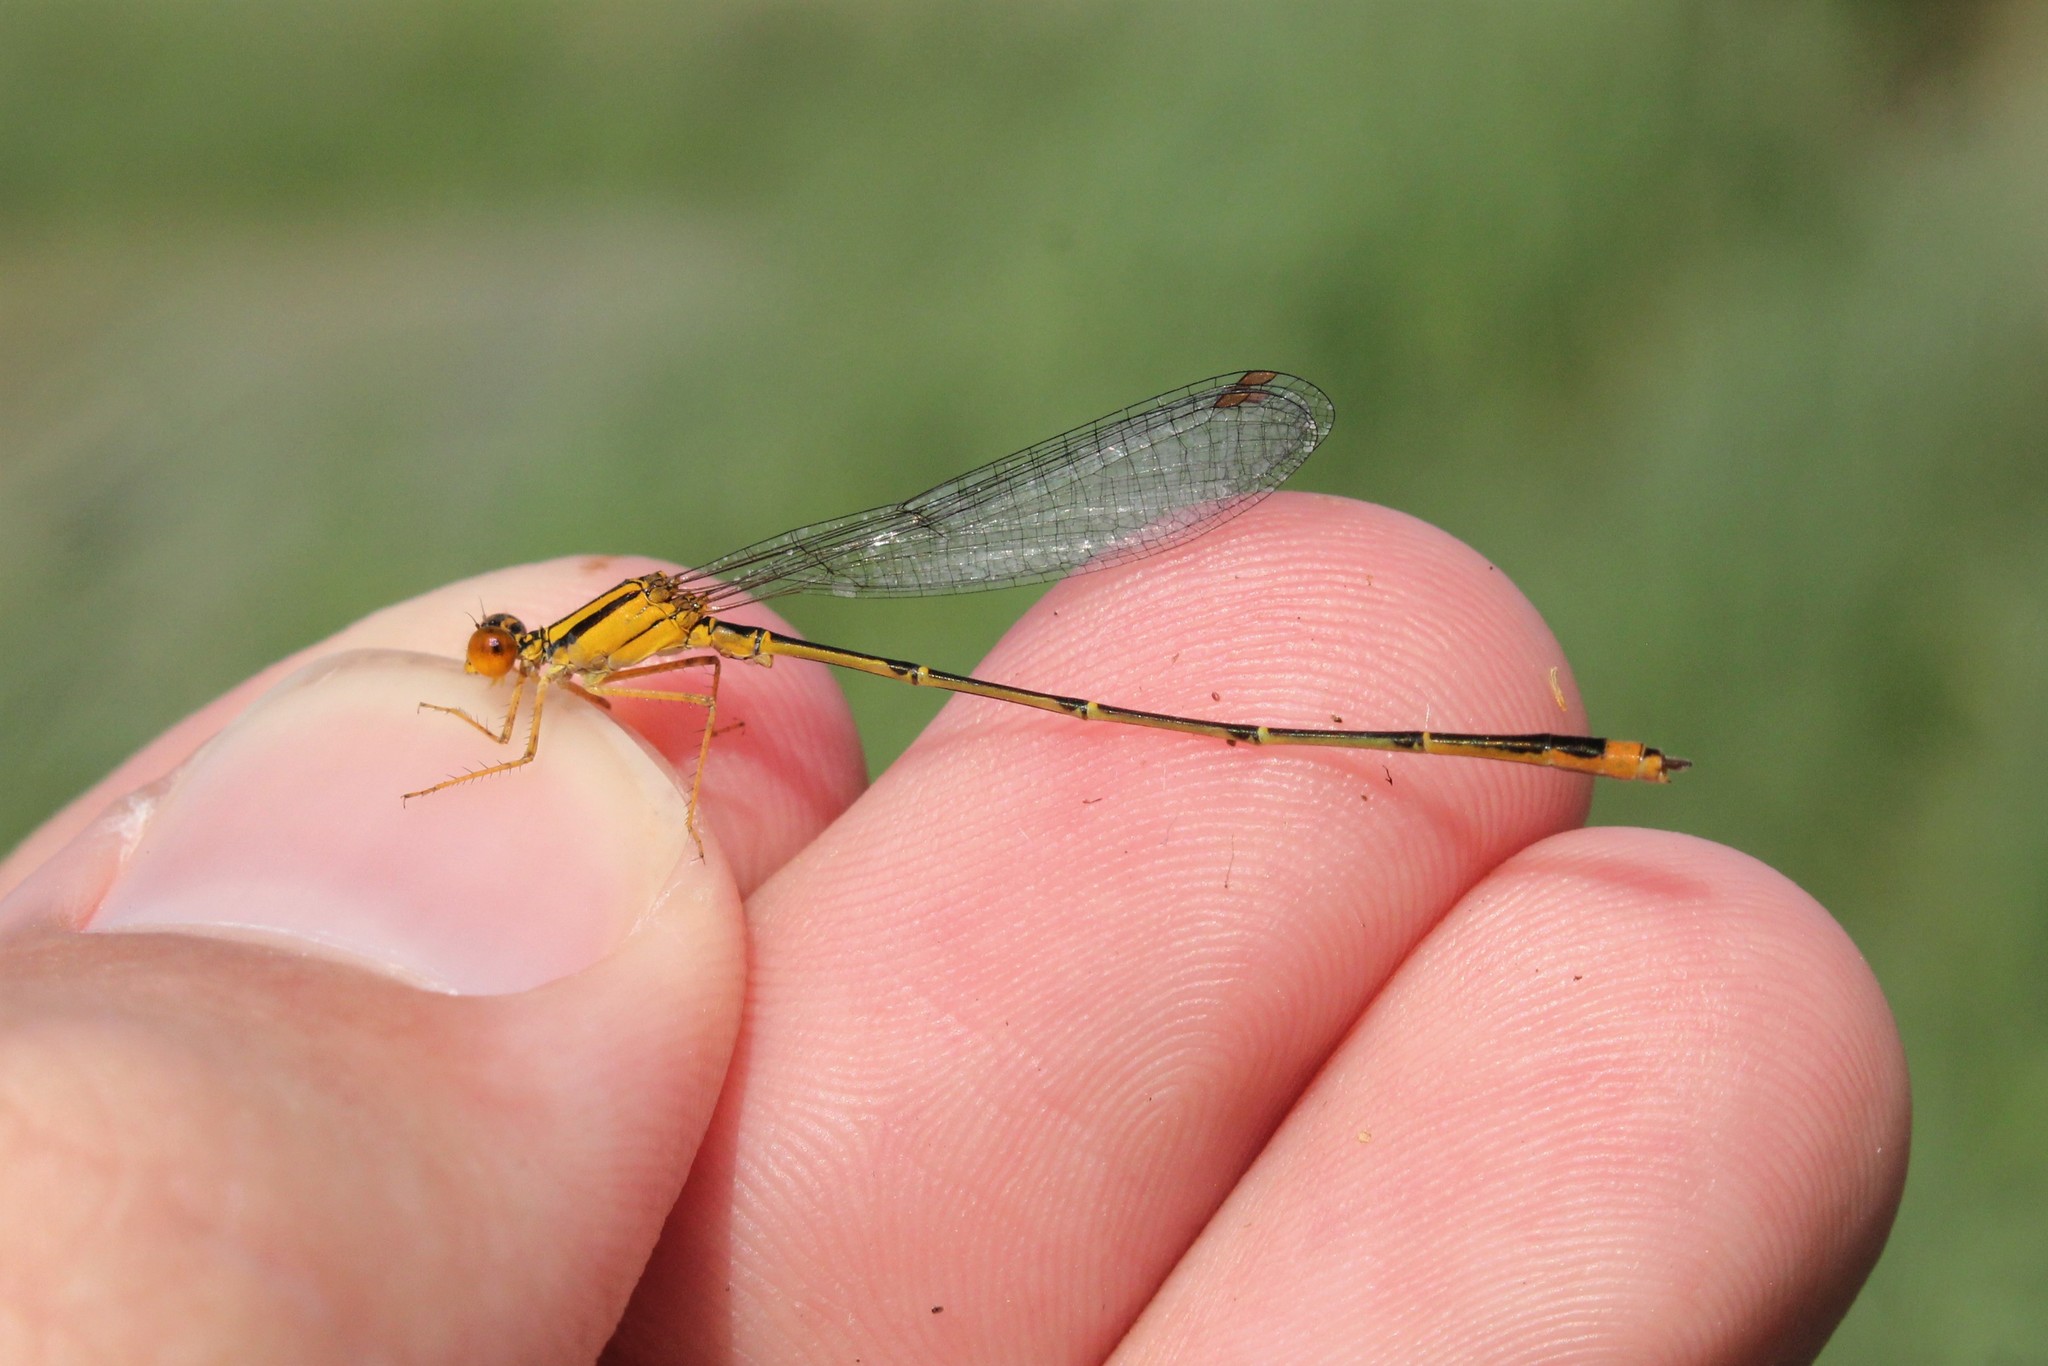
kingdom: Animalia
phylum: Arthropoda
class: Insecta
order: Odonata
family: Coenagrionidae
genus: Enallagma
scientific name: Enallagma signatum
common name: Orange bluet
